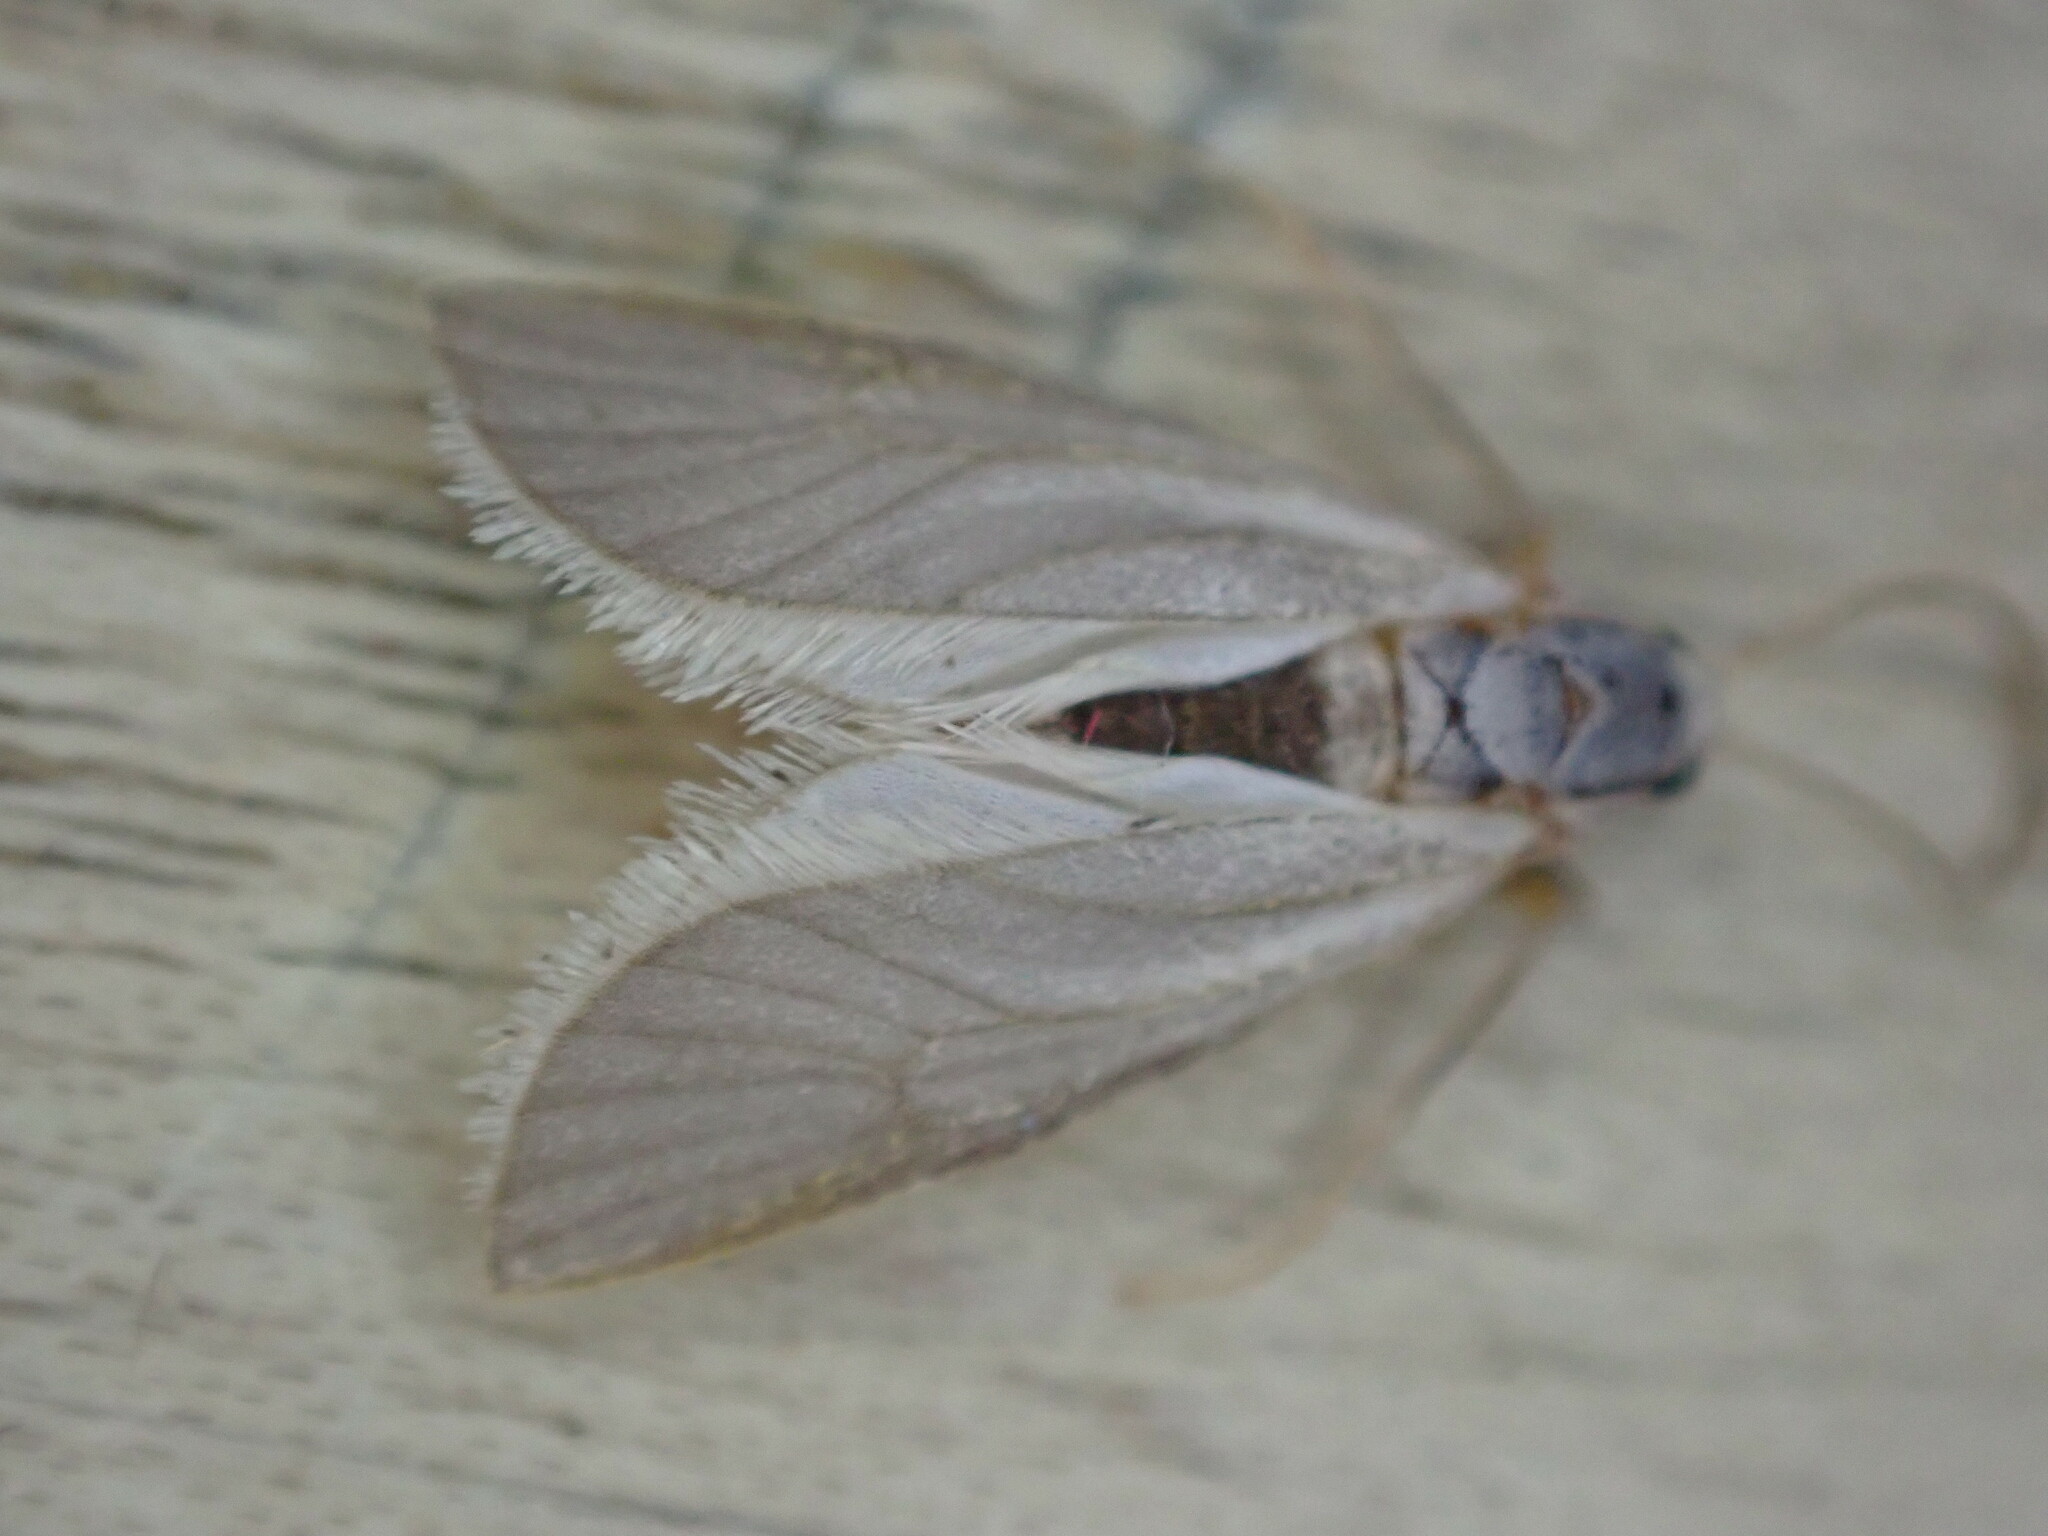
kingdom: Animalia
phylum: Arthropoda
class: Insecta
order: Lepidoptera
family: Crambidae
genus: Acentria
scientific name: Acentria ephemerella
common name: European water moth
